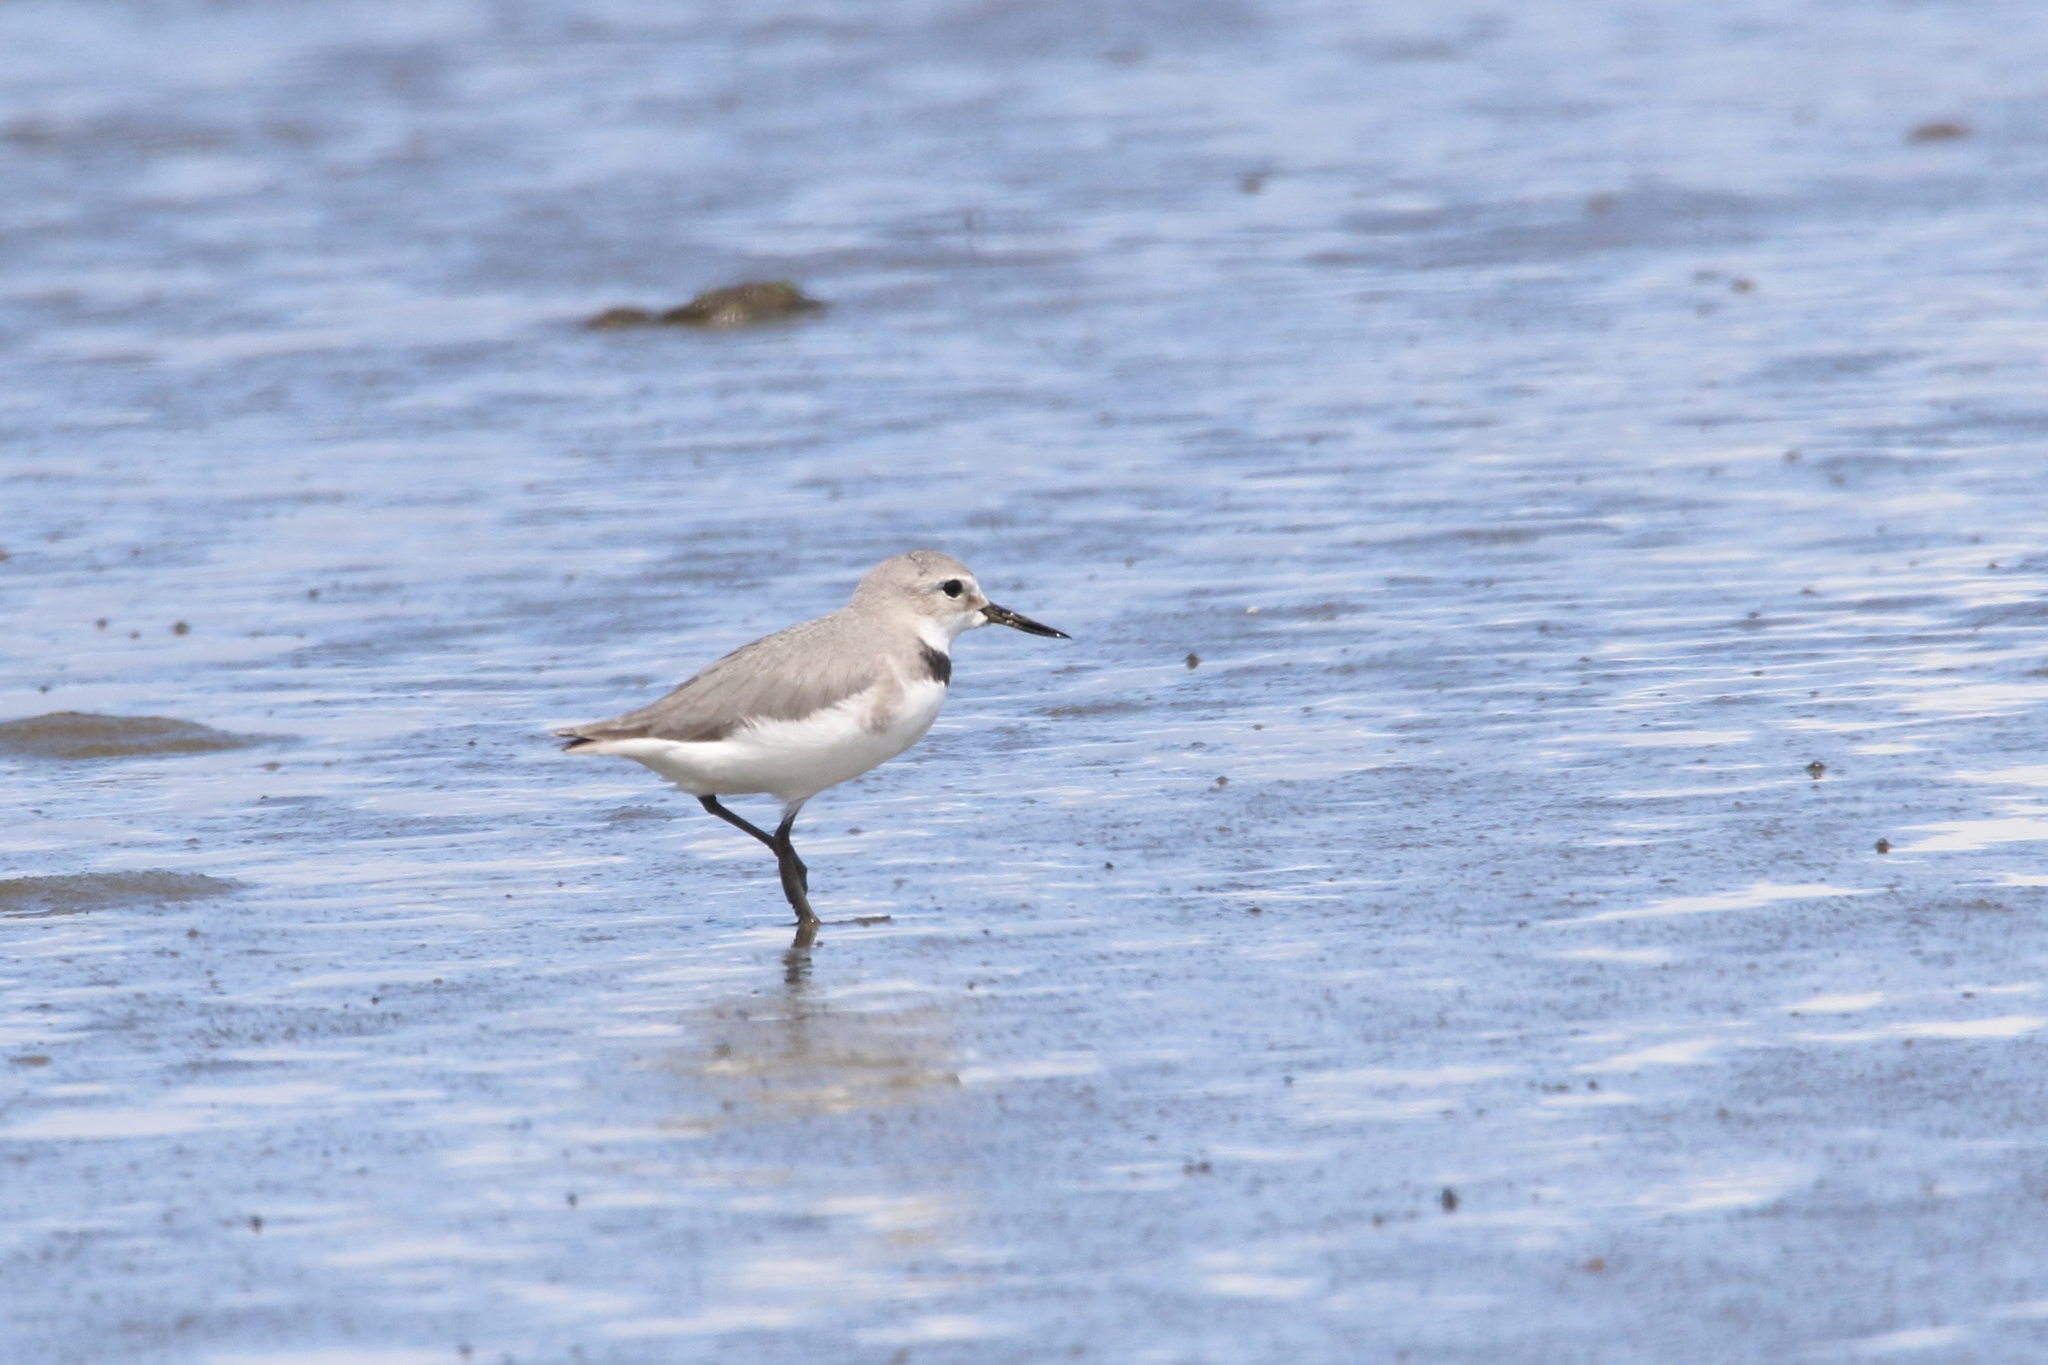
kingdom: Animalia
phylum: Chordata
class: Aves
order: Charadriiformes
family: Charadriidae
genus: Anarhynchus
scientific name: Anarhynchus frontalis
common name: Wrybill
